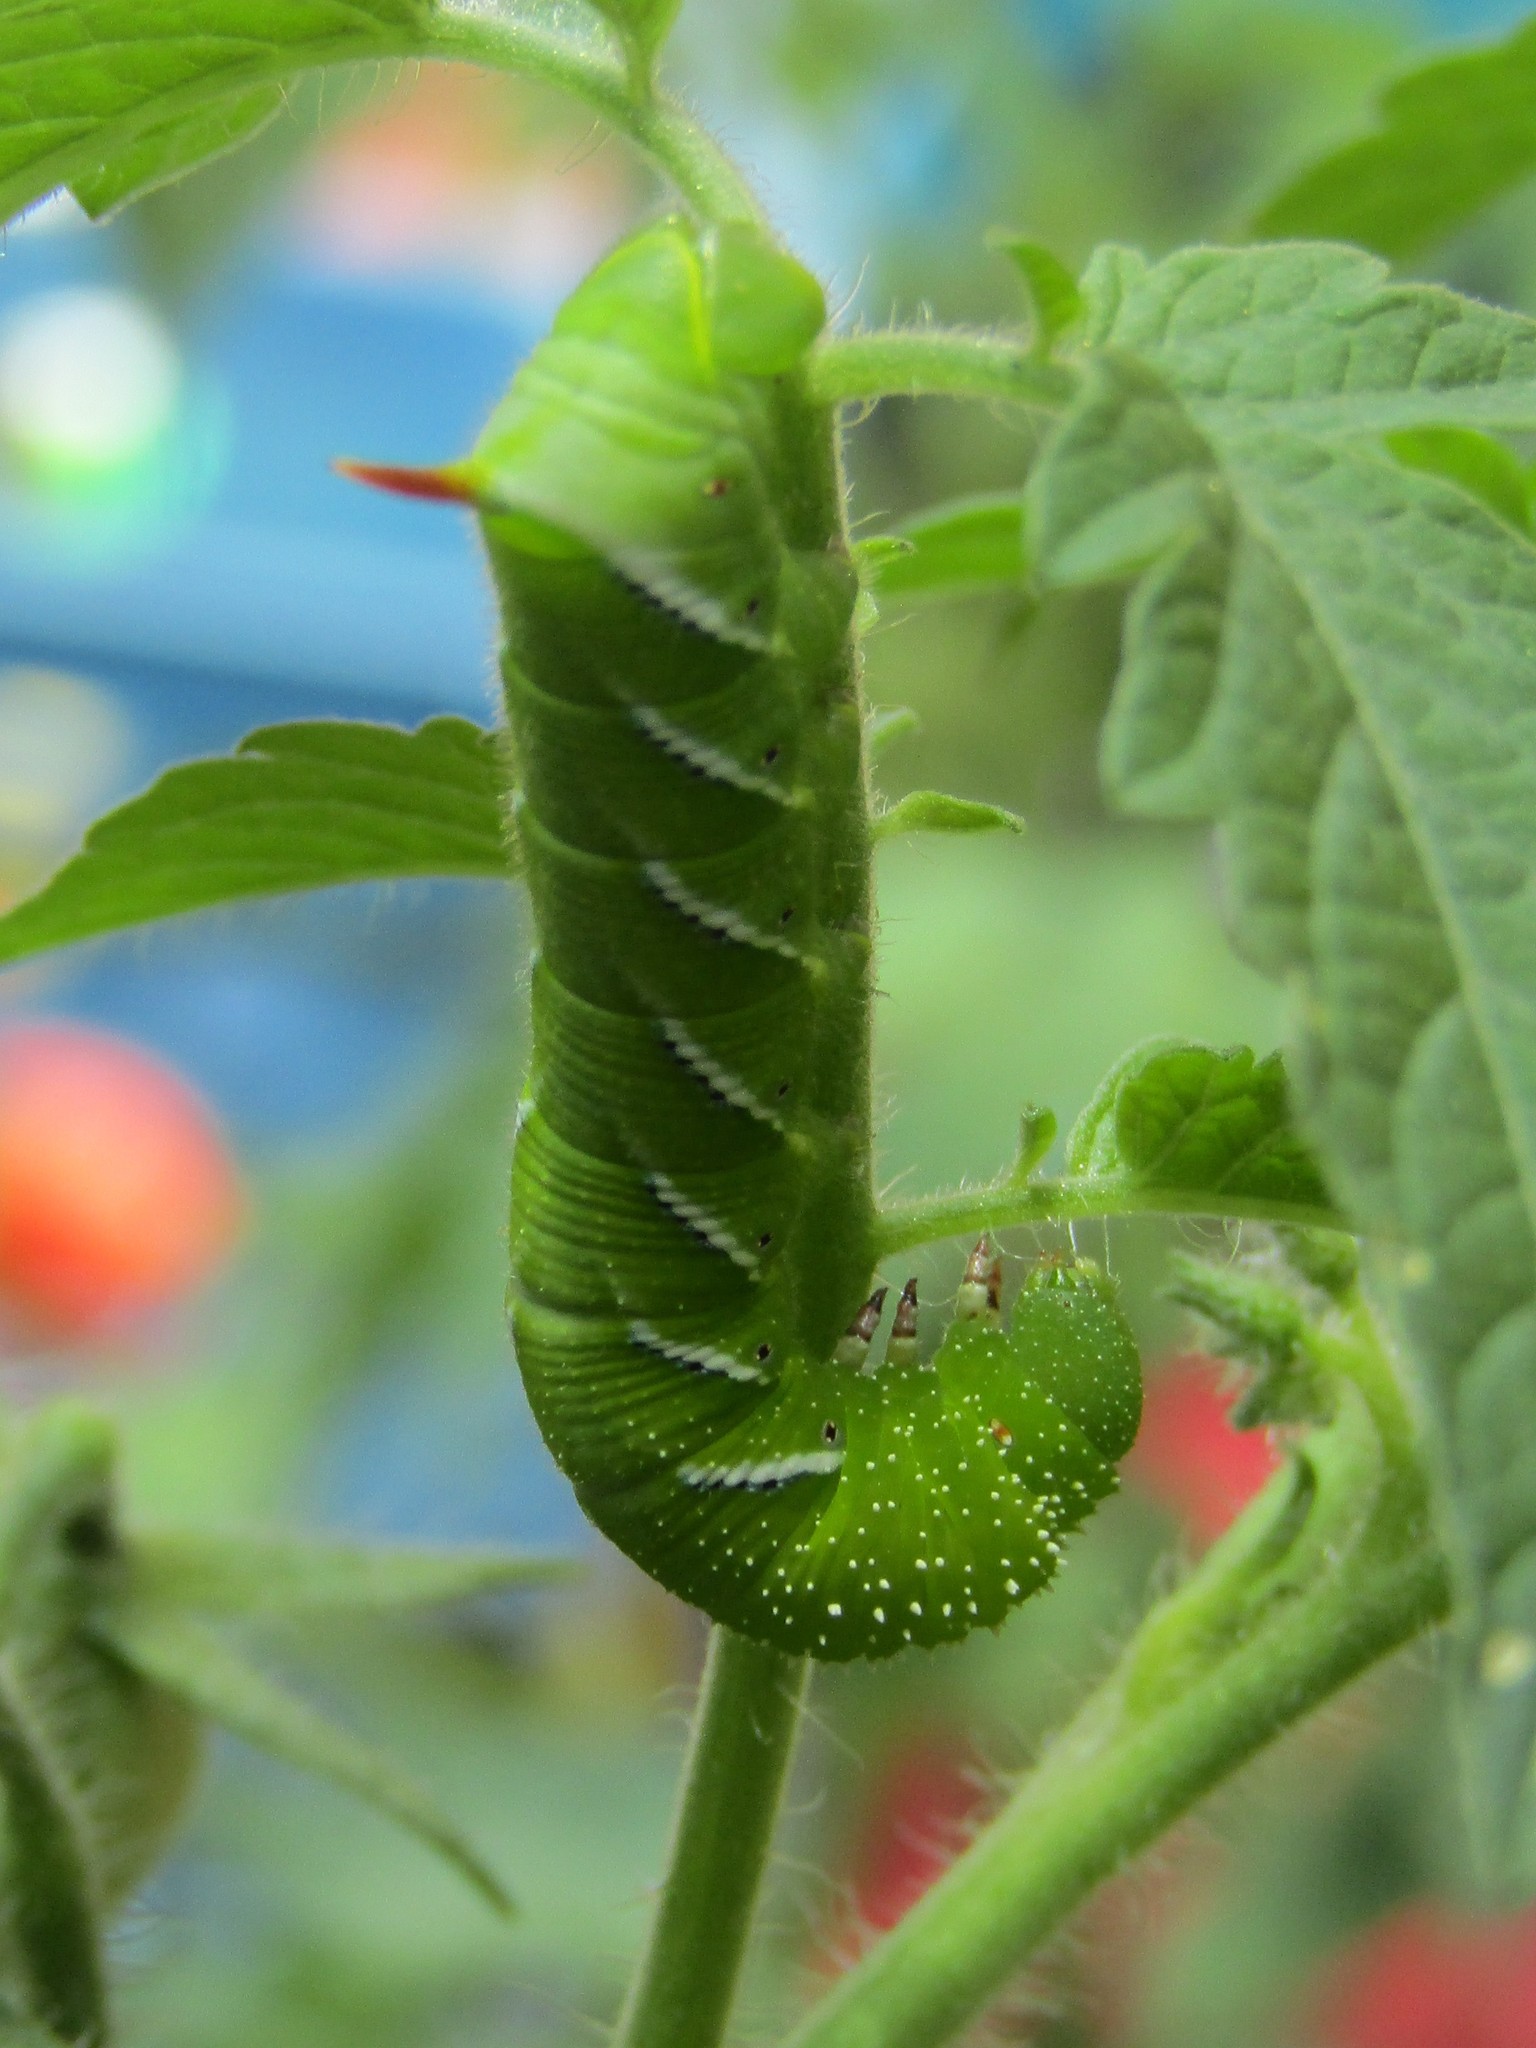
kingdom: Animalia
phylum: Arthropoda
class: Insecta
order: Lepidoptera
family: Sphingidae
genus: Manduca
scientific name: Manduca sexta
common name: Carolina sphinx
